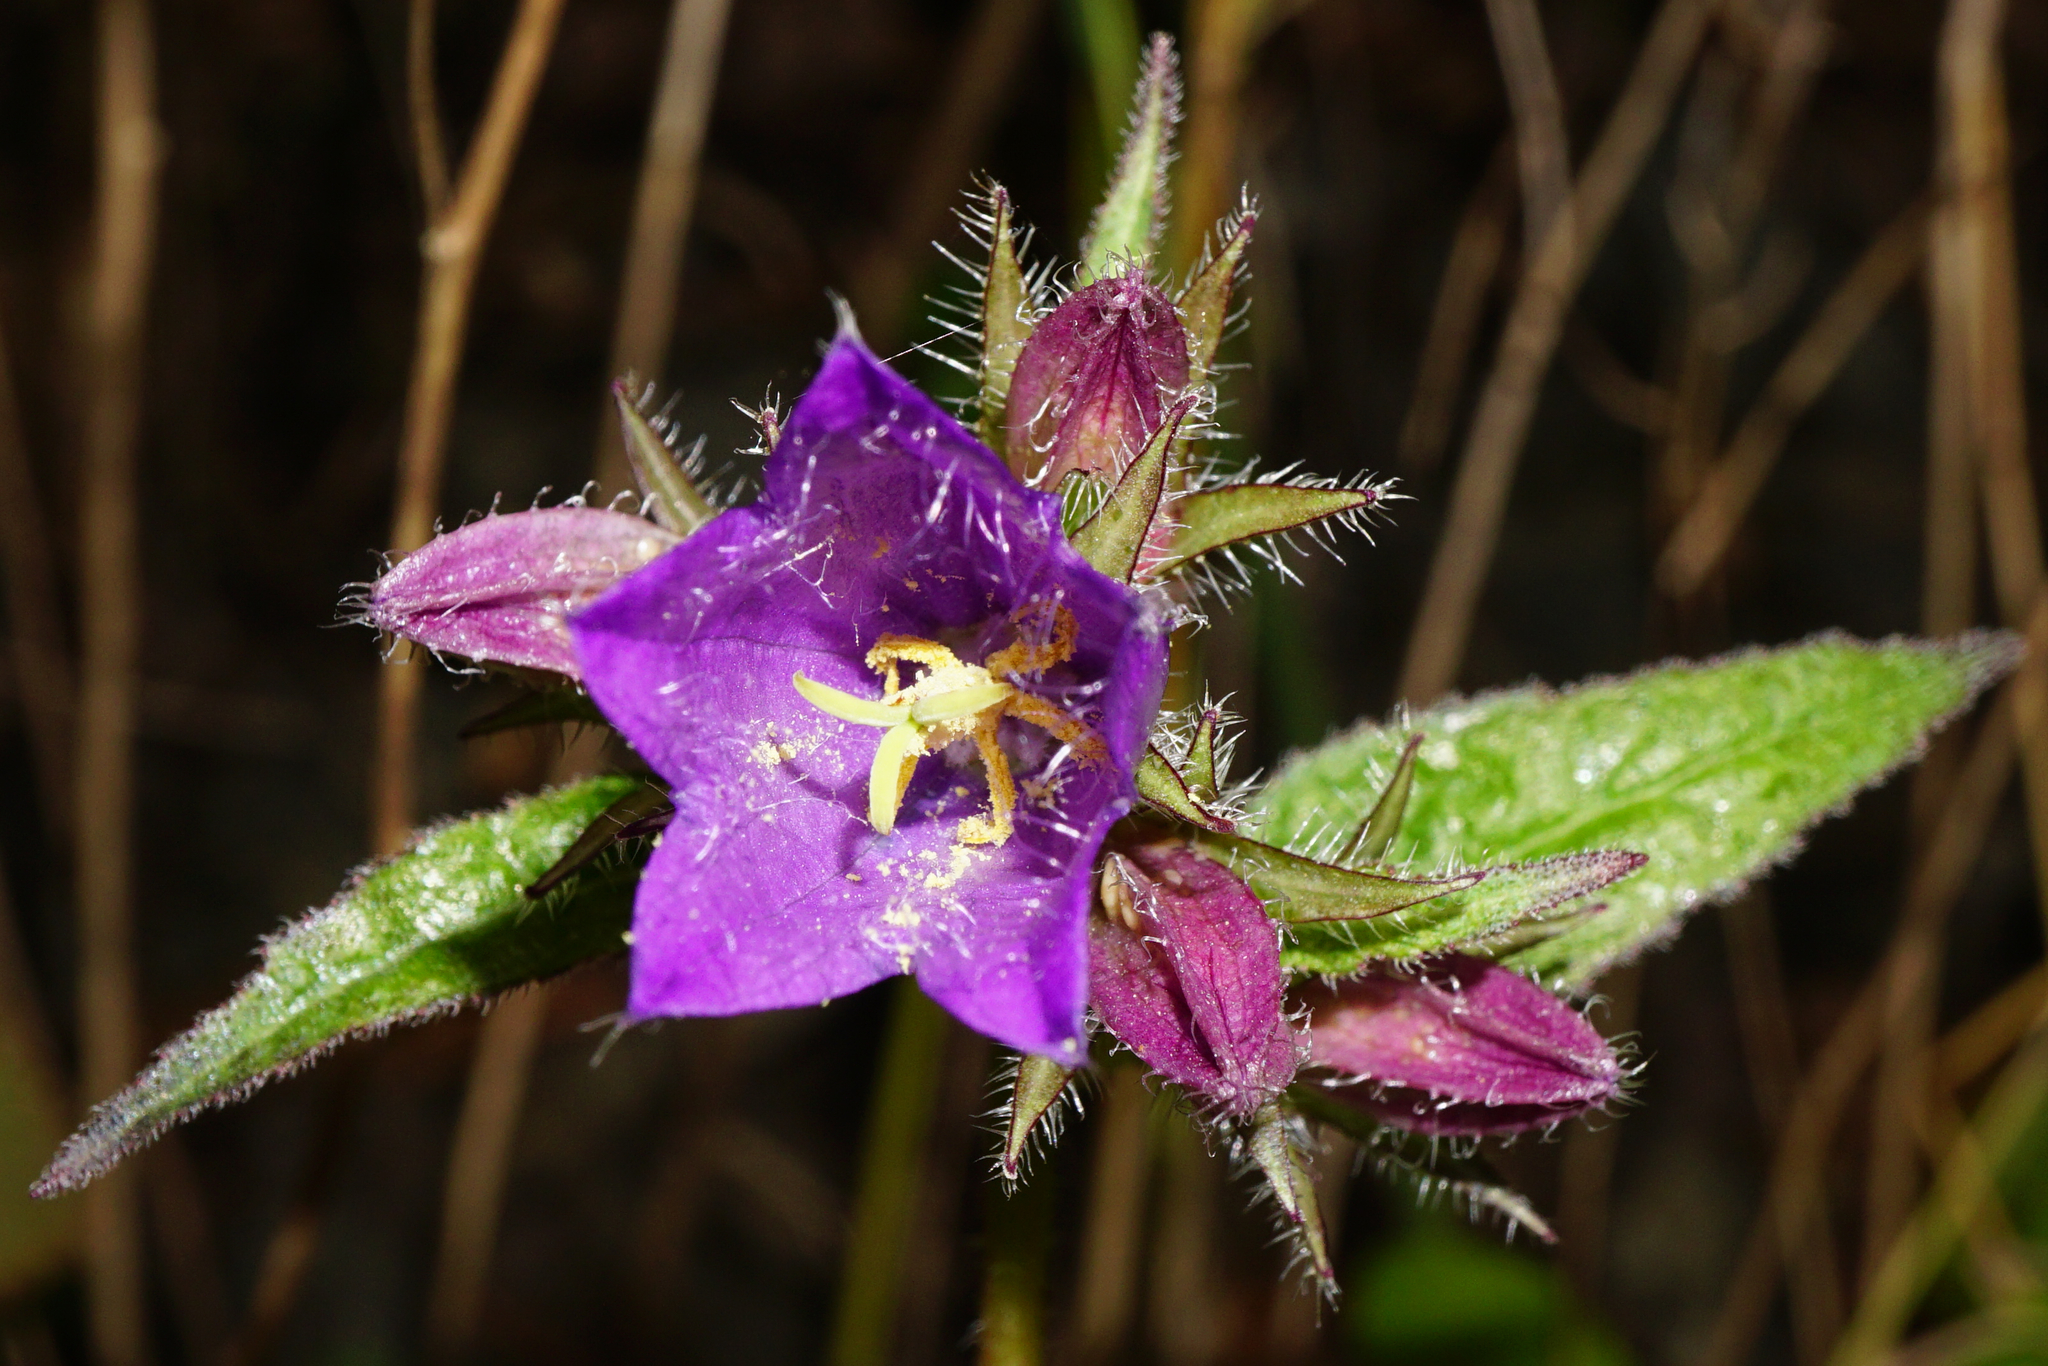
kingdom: Plantae
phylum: Tracheophyta
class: Magnoliopsida
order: Asterales
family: Campanulaceae
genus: Campanula
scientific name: Campanula trachelium
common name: Nettle-leaved bellflower
